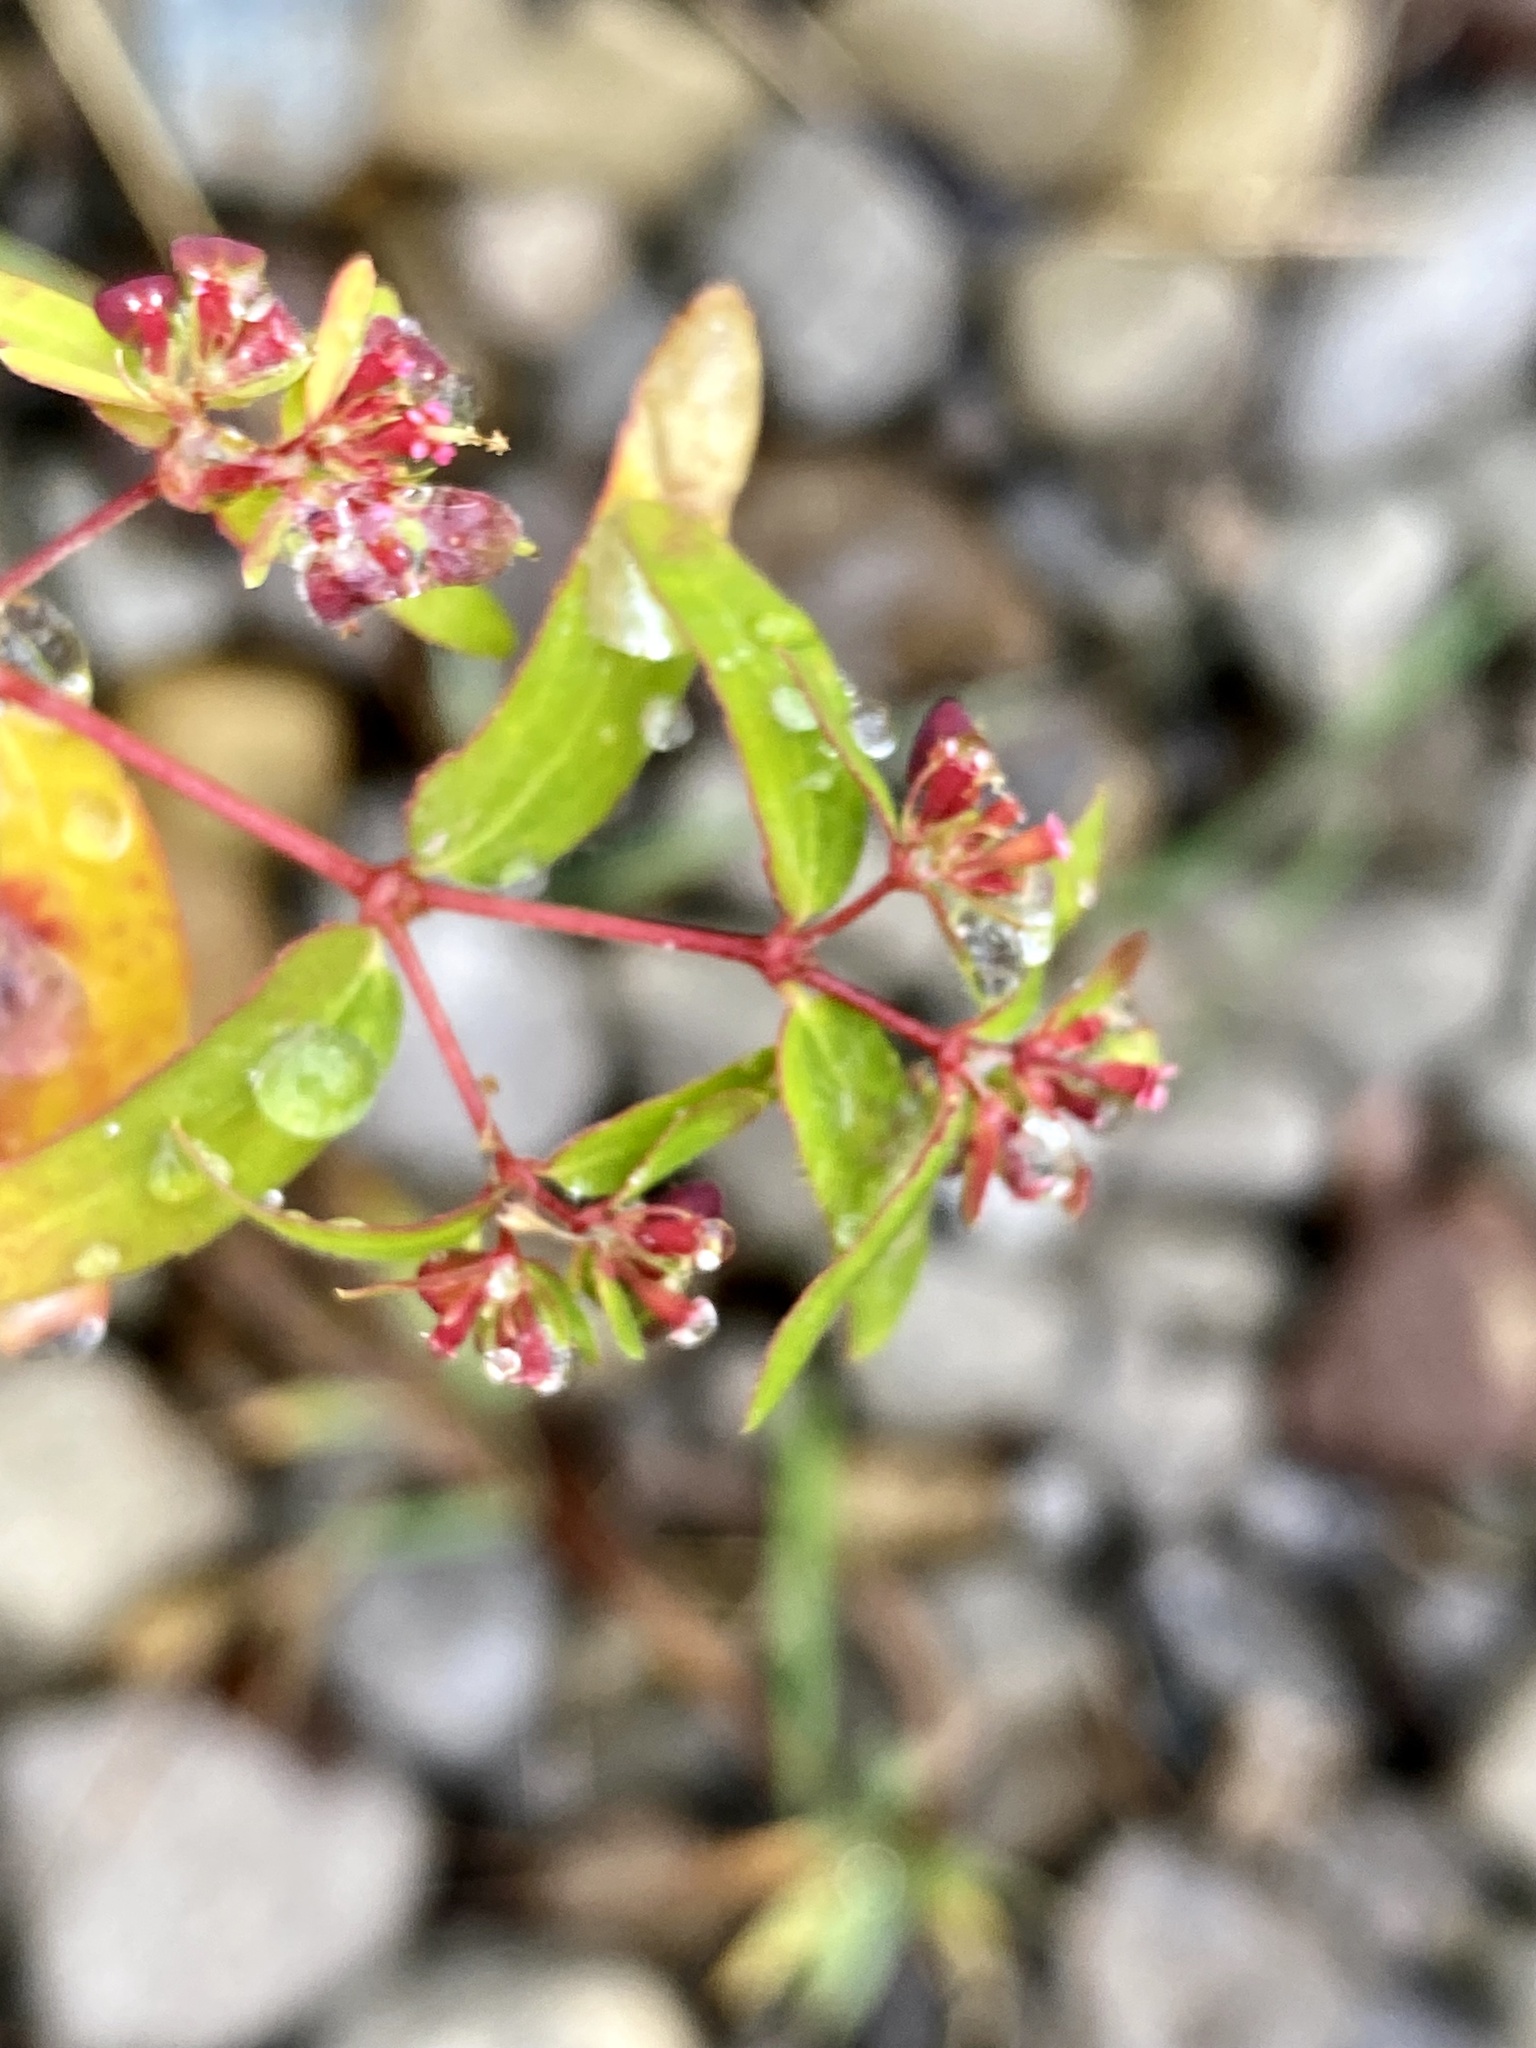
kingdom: Plantae
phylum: Tracheophyta
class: Magnoliopsida
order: Malpighiales
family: Euphorbiaceae
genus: Euphorbia
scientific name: Euphorbia nutans
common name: Eyebane
